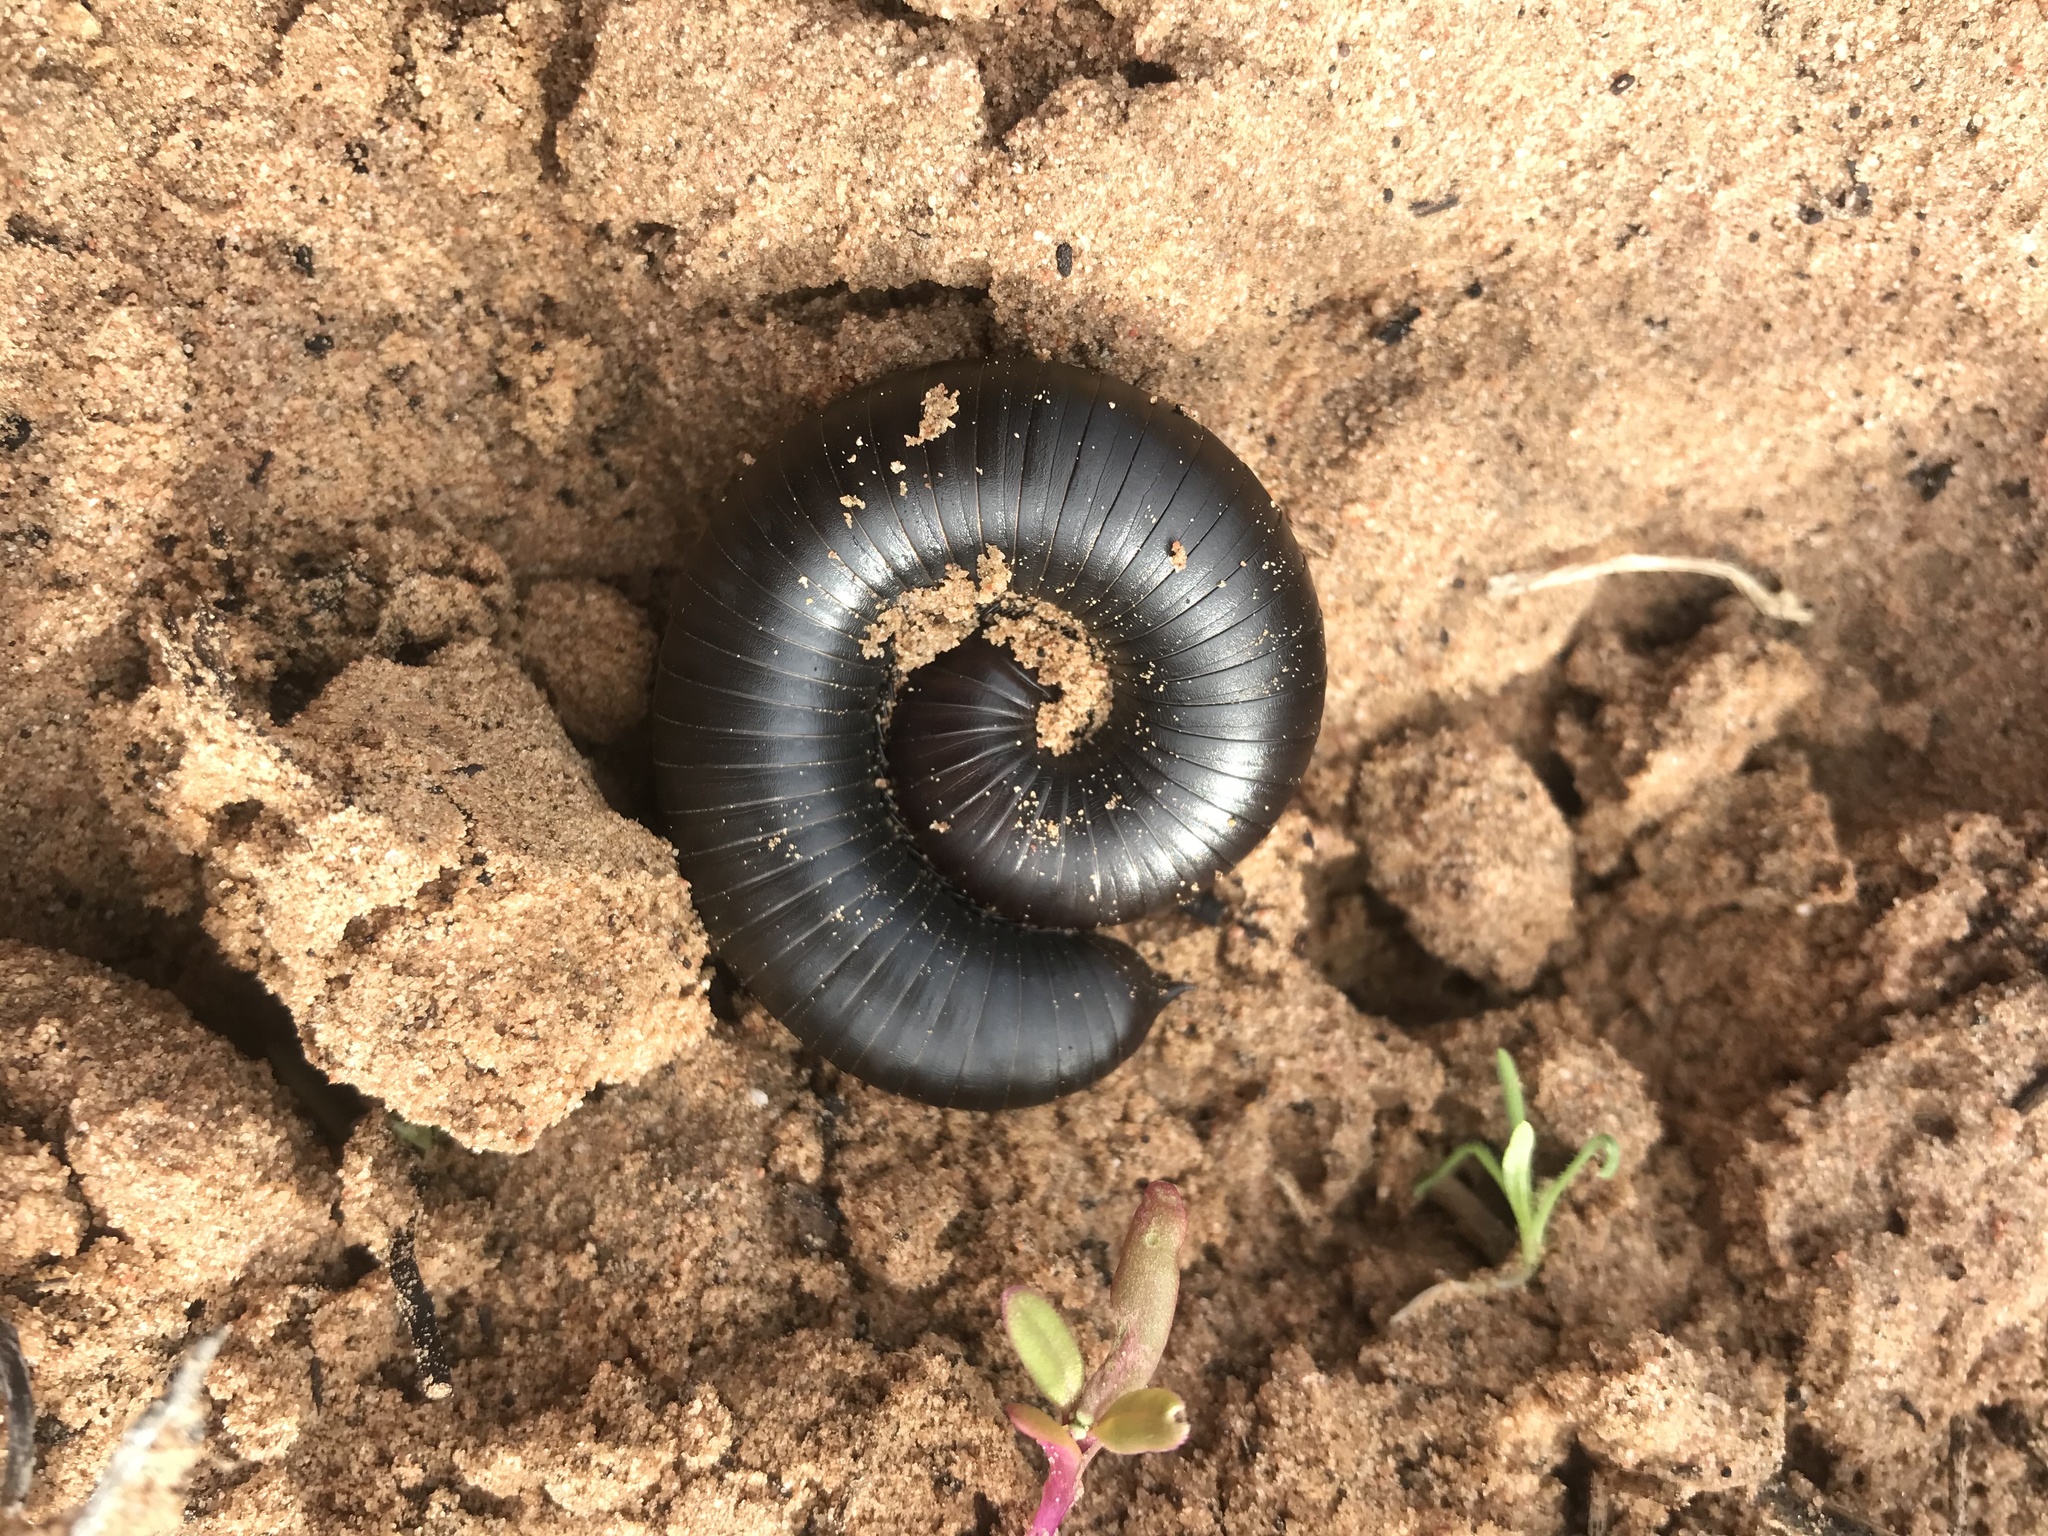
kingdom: Animalia
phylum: Arthropoda
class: Diplopoda
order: Spirostreptida
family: Harpagophoridae
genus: Harpagophora
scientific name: Harpagophora attenuata
